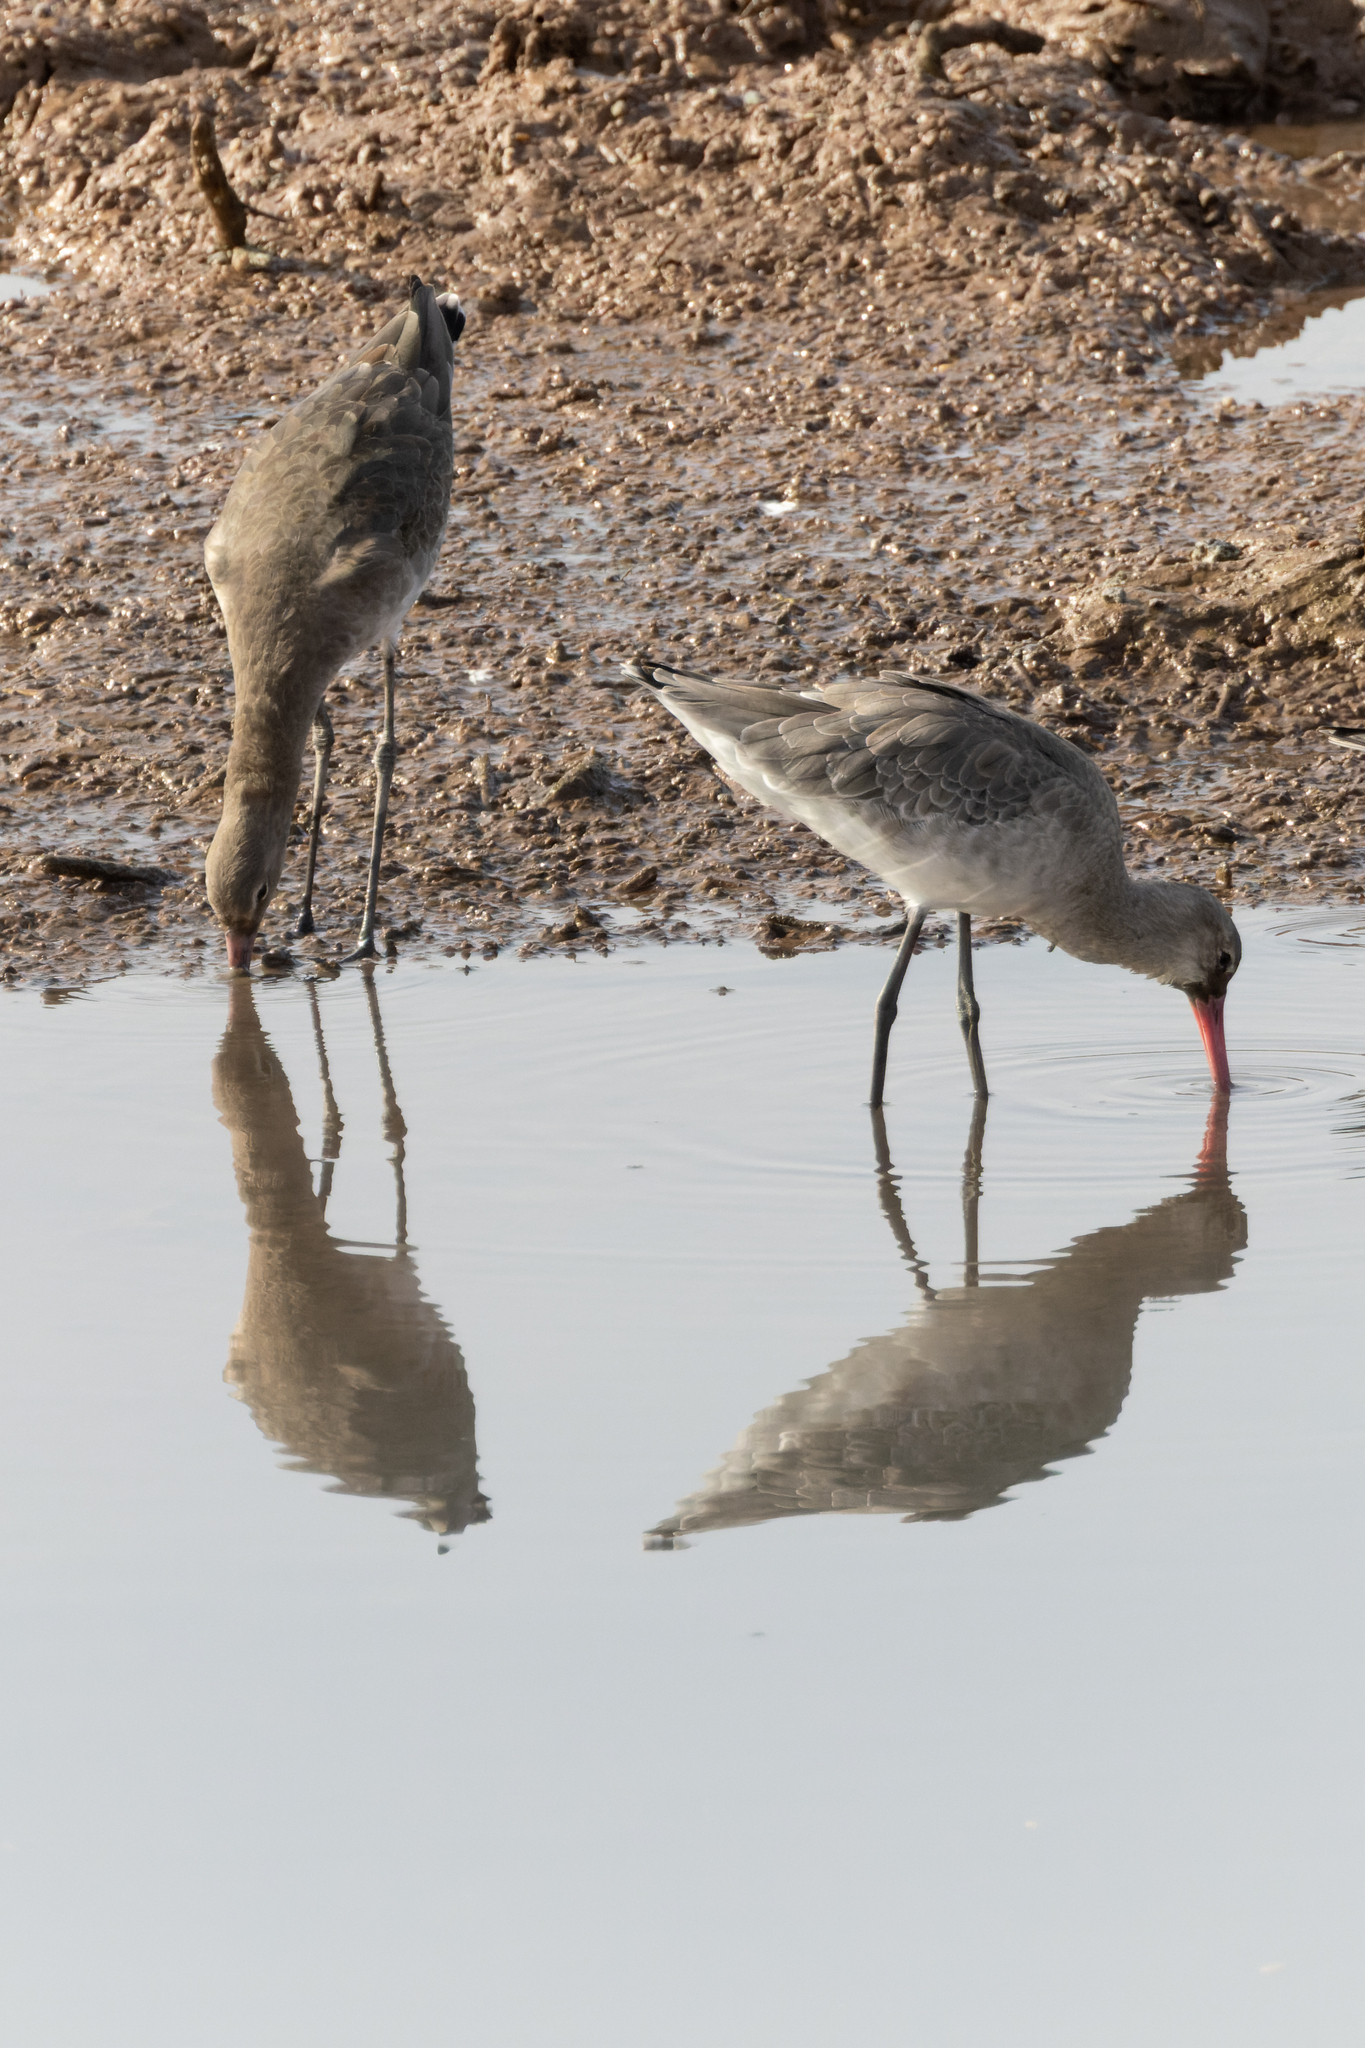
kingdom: Animalia
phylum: Chordata
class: Aves
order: Charadriiformes
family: Scolopacidae
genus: Limosa
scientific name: Limosa limosa
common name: Black-tailed godwit
